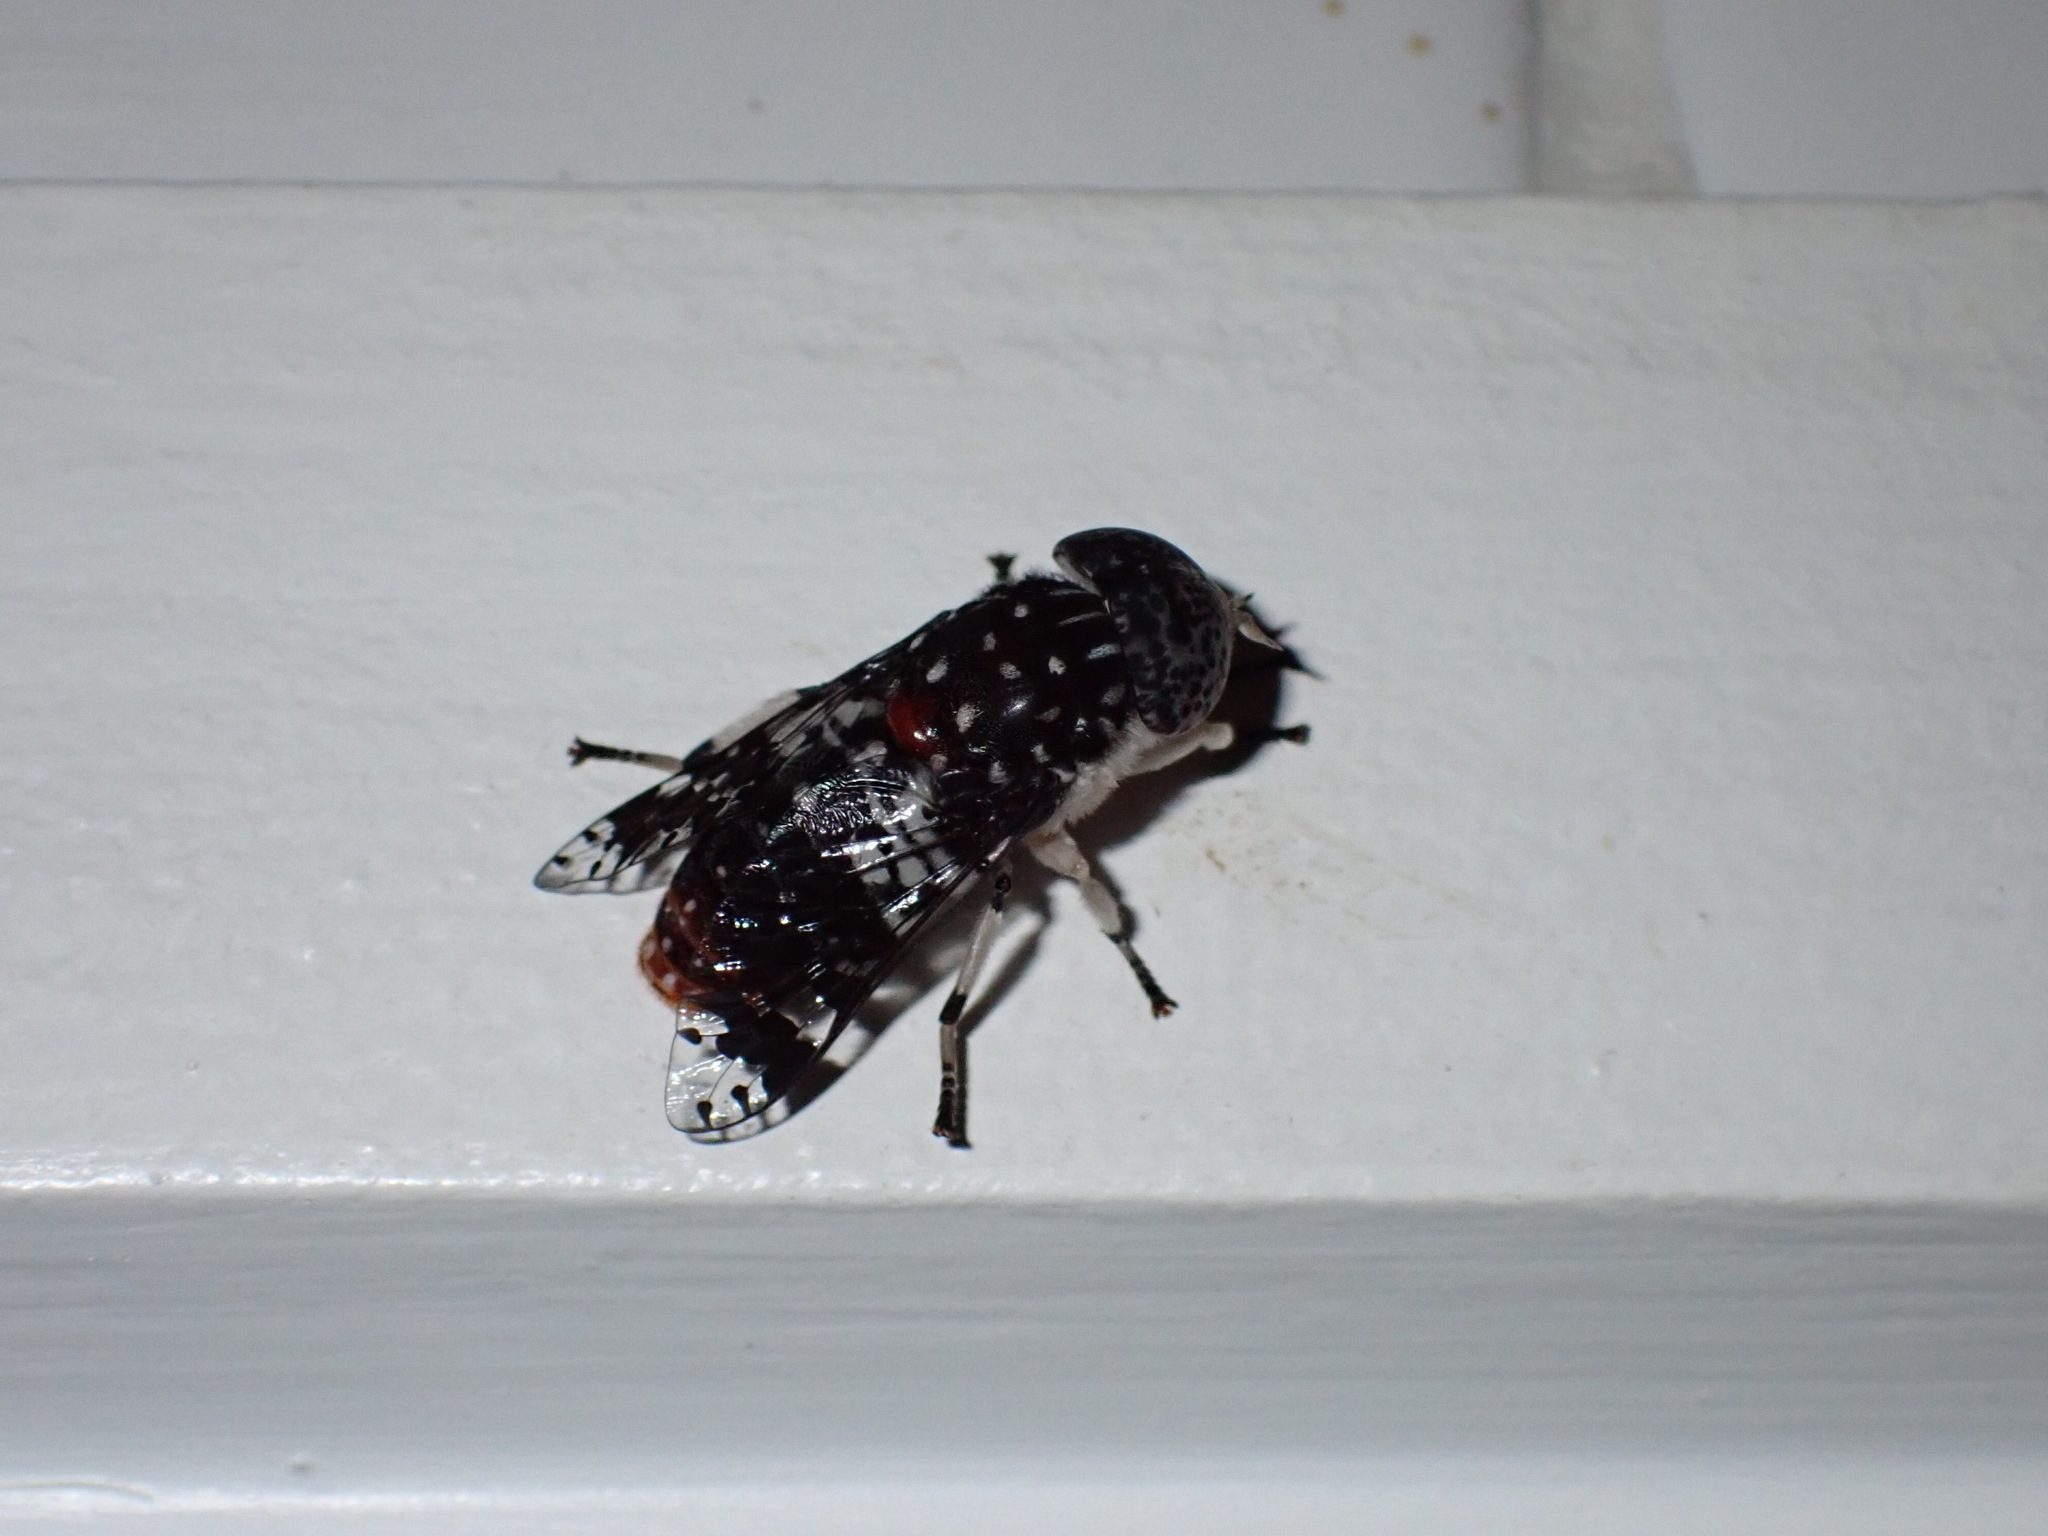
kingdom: Animalia
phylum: Arthropoda
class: Insecta
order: Diptera
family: Tabanidae
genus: Euancala
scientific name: Euancala maculatissima
